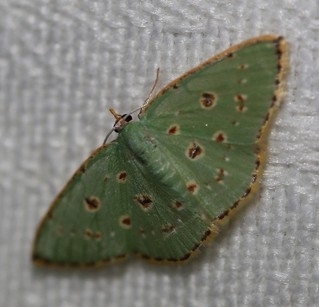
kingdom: Animalia
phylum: Arthropoda
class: Insecta
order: Lepidoptera
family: Geometridae
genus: Comostola
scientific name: Comostola laesaria
